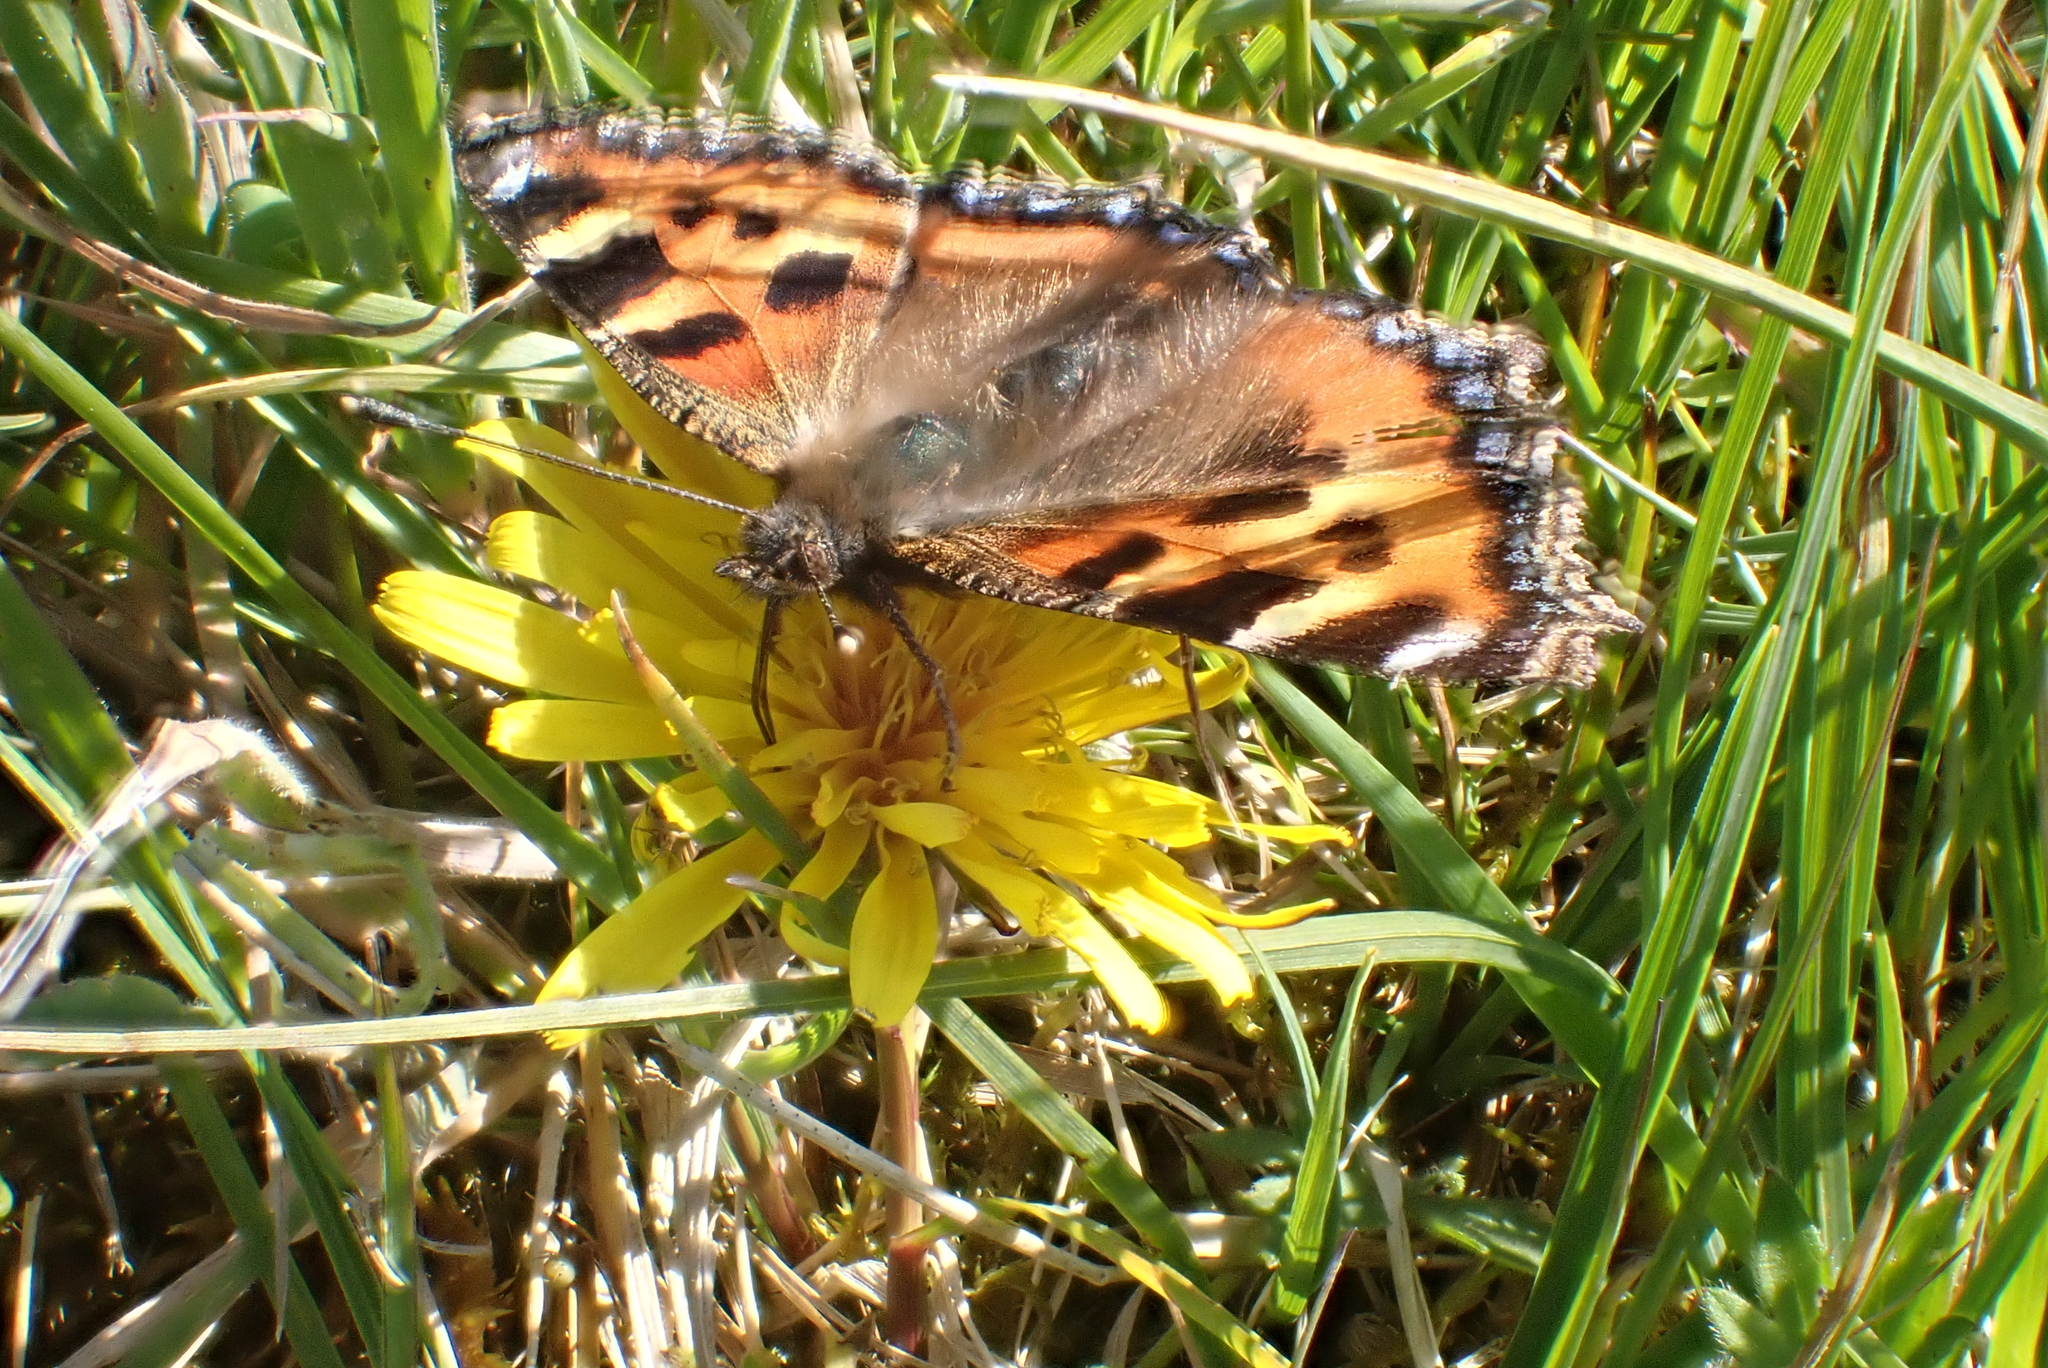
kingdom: Animalia
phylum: Arthropoda
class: Insecta
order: Lepidoptera
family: Nymphalidae
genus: Aglais
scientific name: Aglais urticae
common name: Small tortoiseshell
